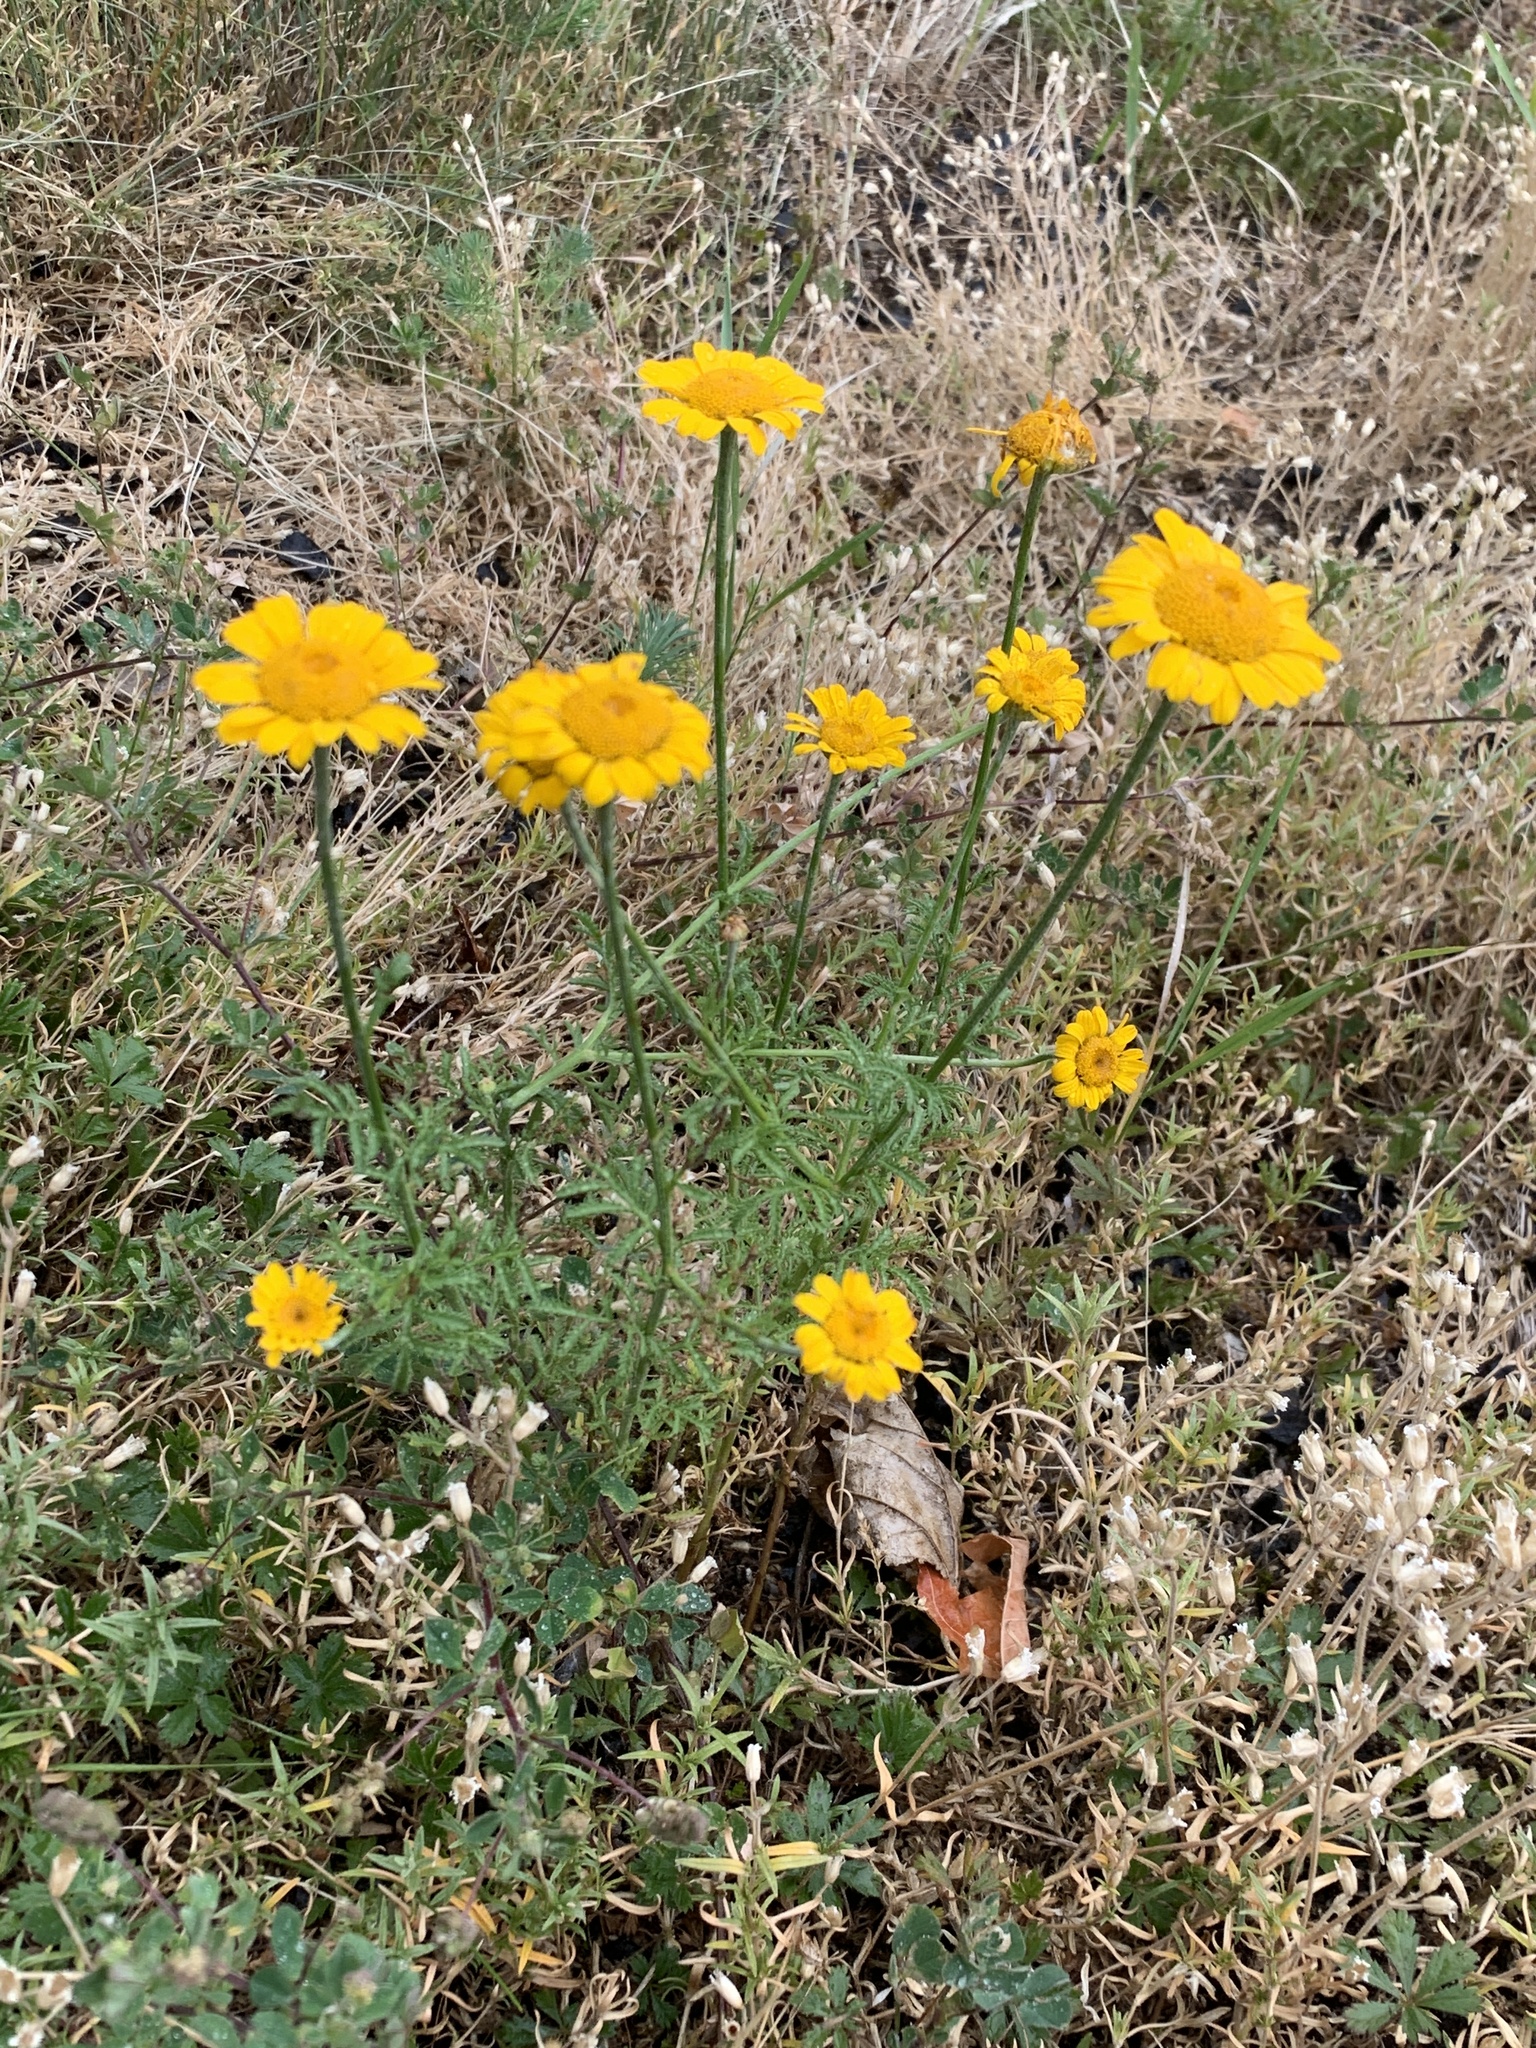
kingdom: Plantae
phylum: Tracheophyta
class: Magnoliopsida
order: Asterales
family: Asteraceae
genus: Cota
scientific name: Cota tinctoria
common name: Golden chamomile
